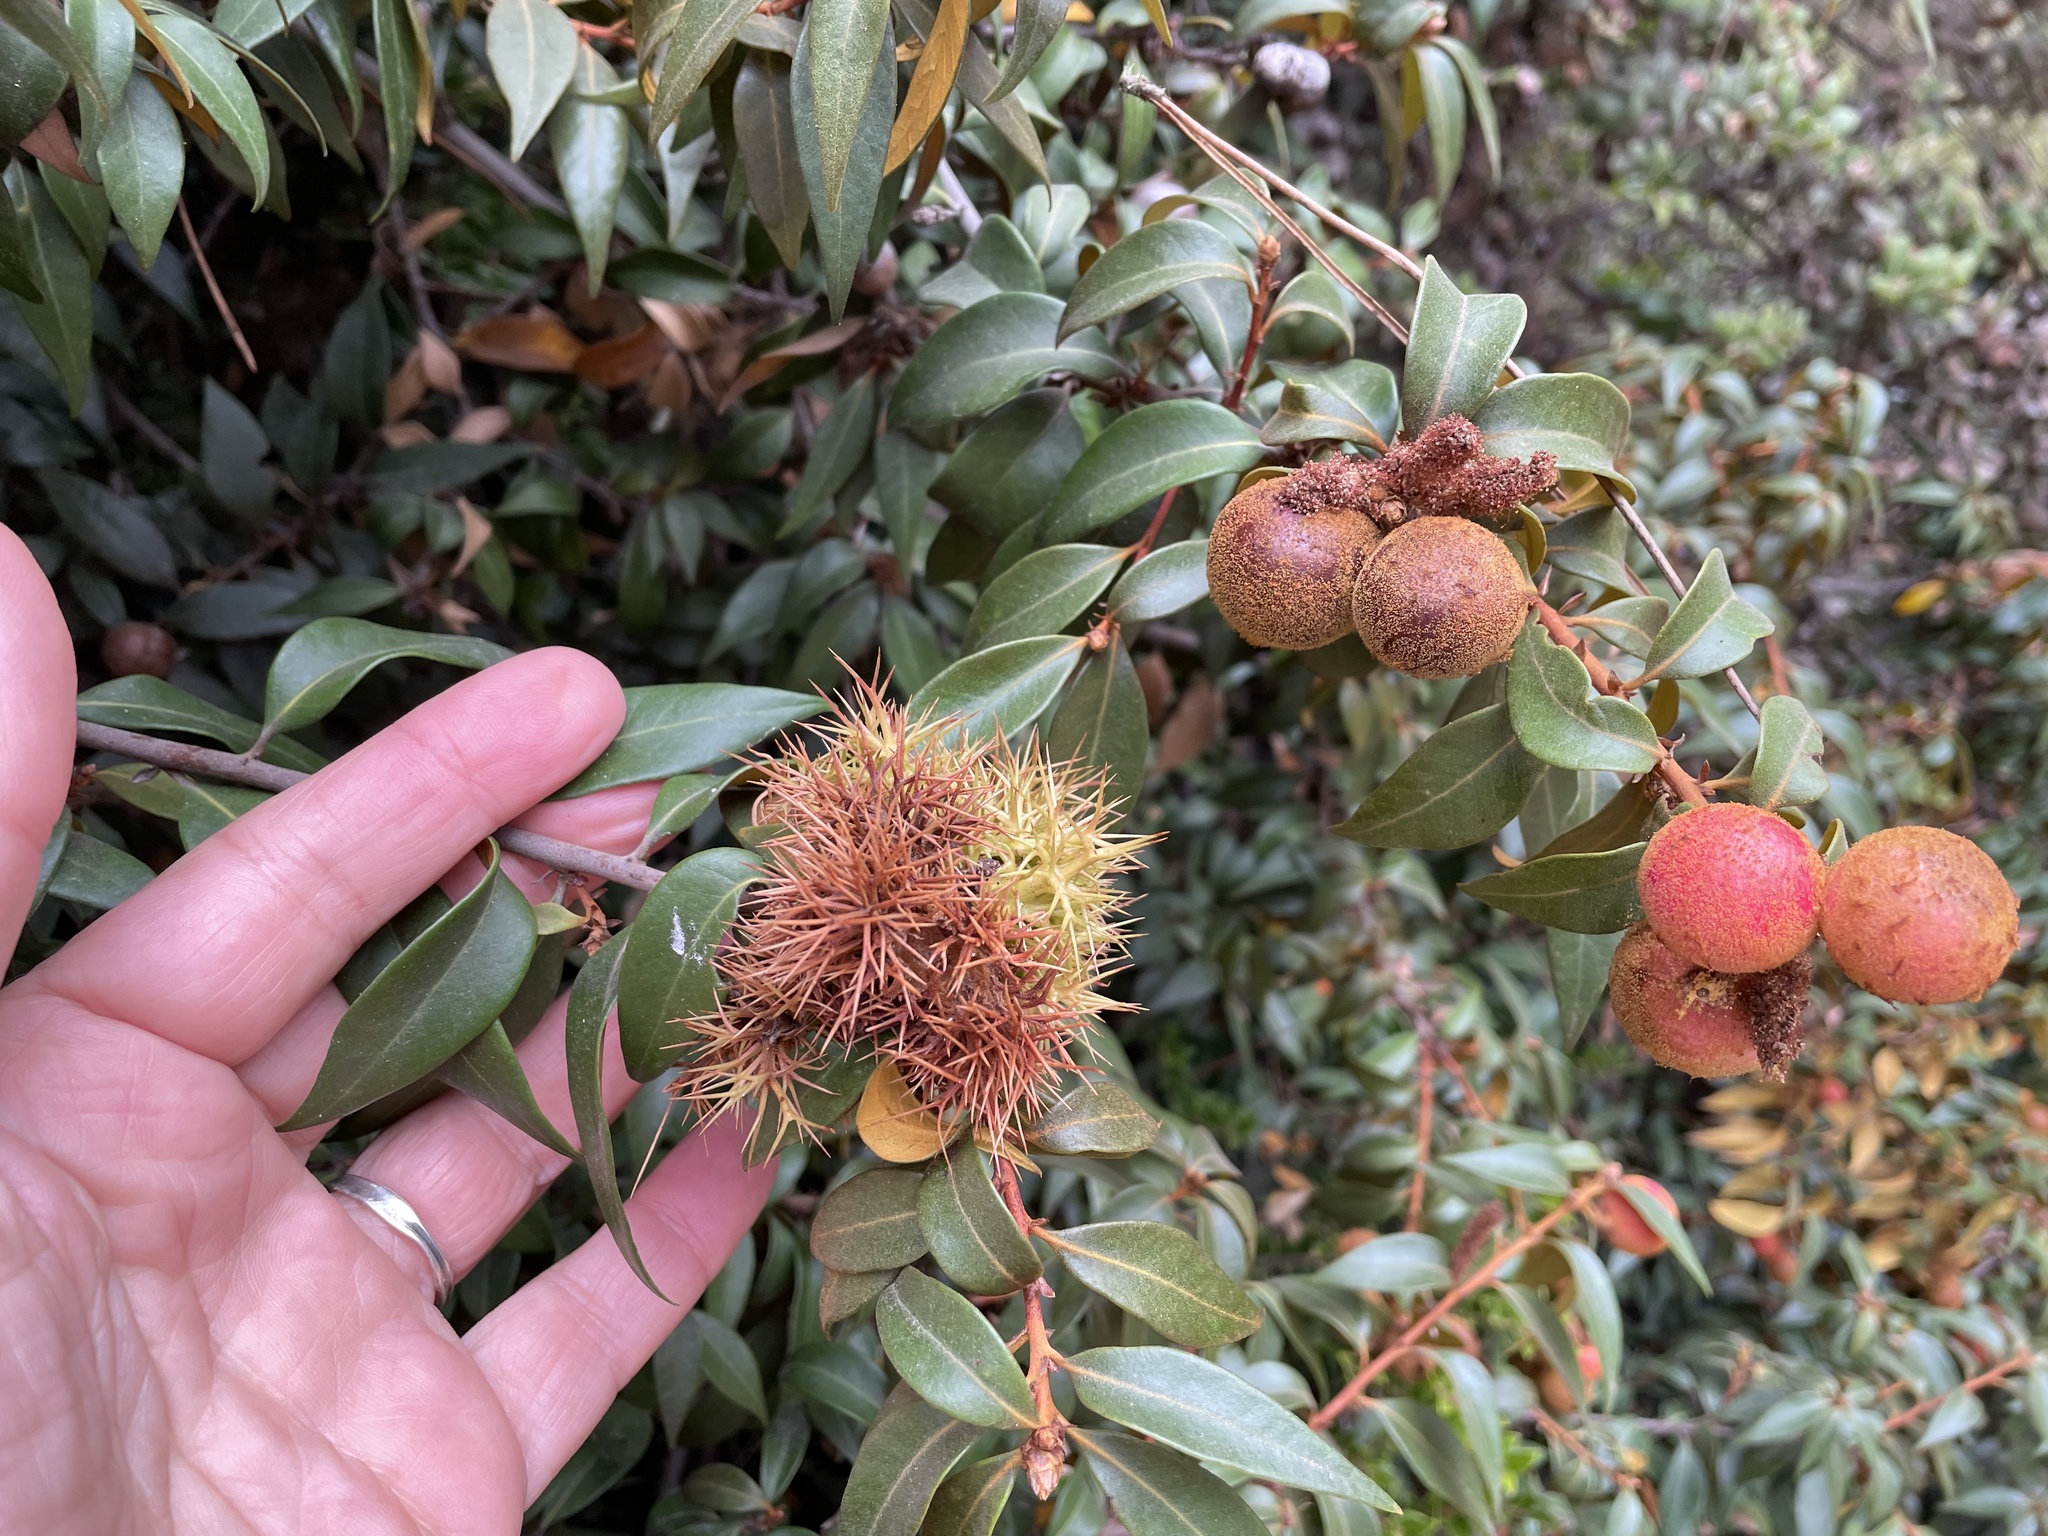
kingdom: Plantae
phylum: Tracheophyta
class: Magnoliopsida
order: Fagales
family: Fagaceae
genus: Chrysolepis
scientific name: Chrysolepis chrysophylla
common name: Giant chinquapin
